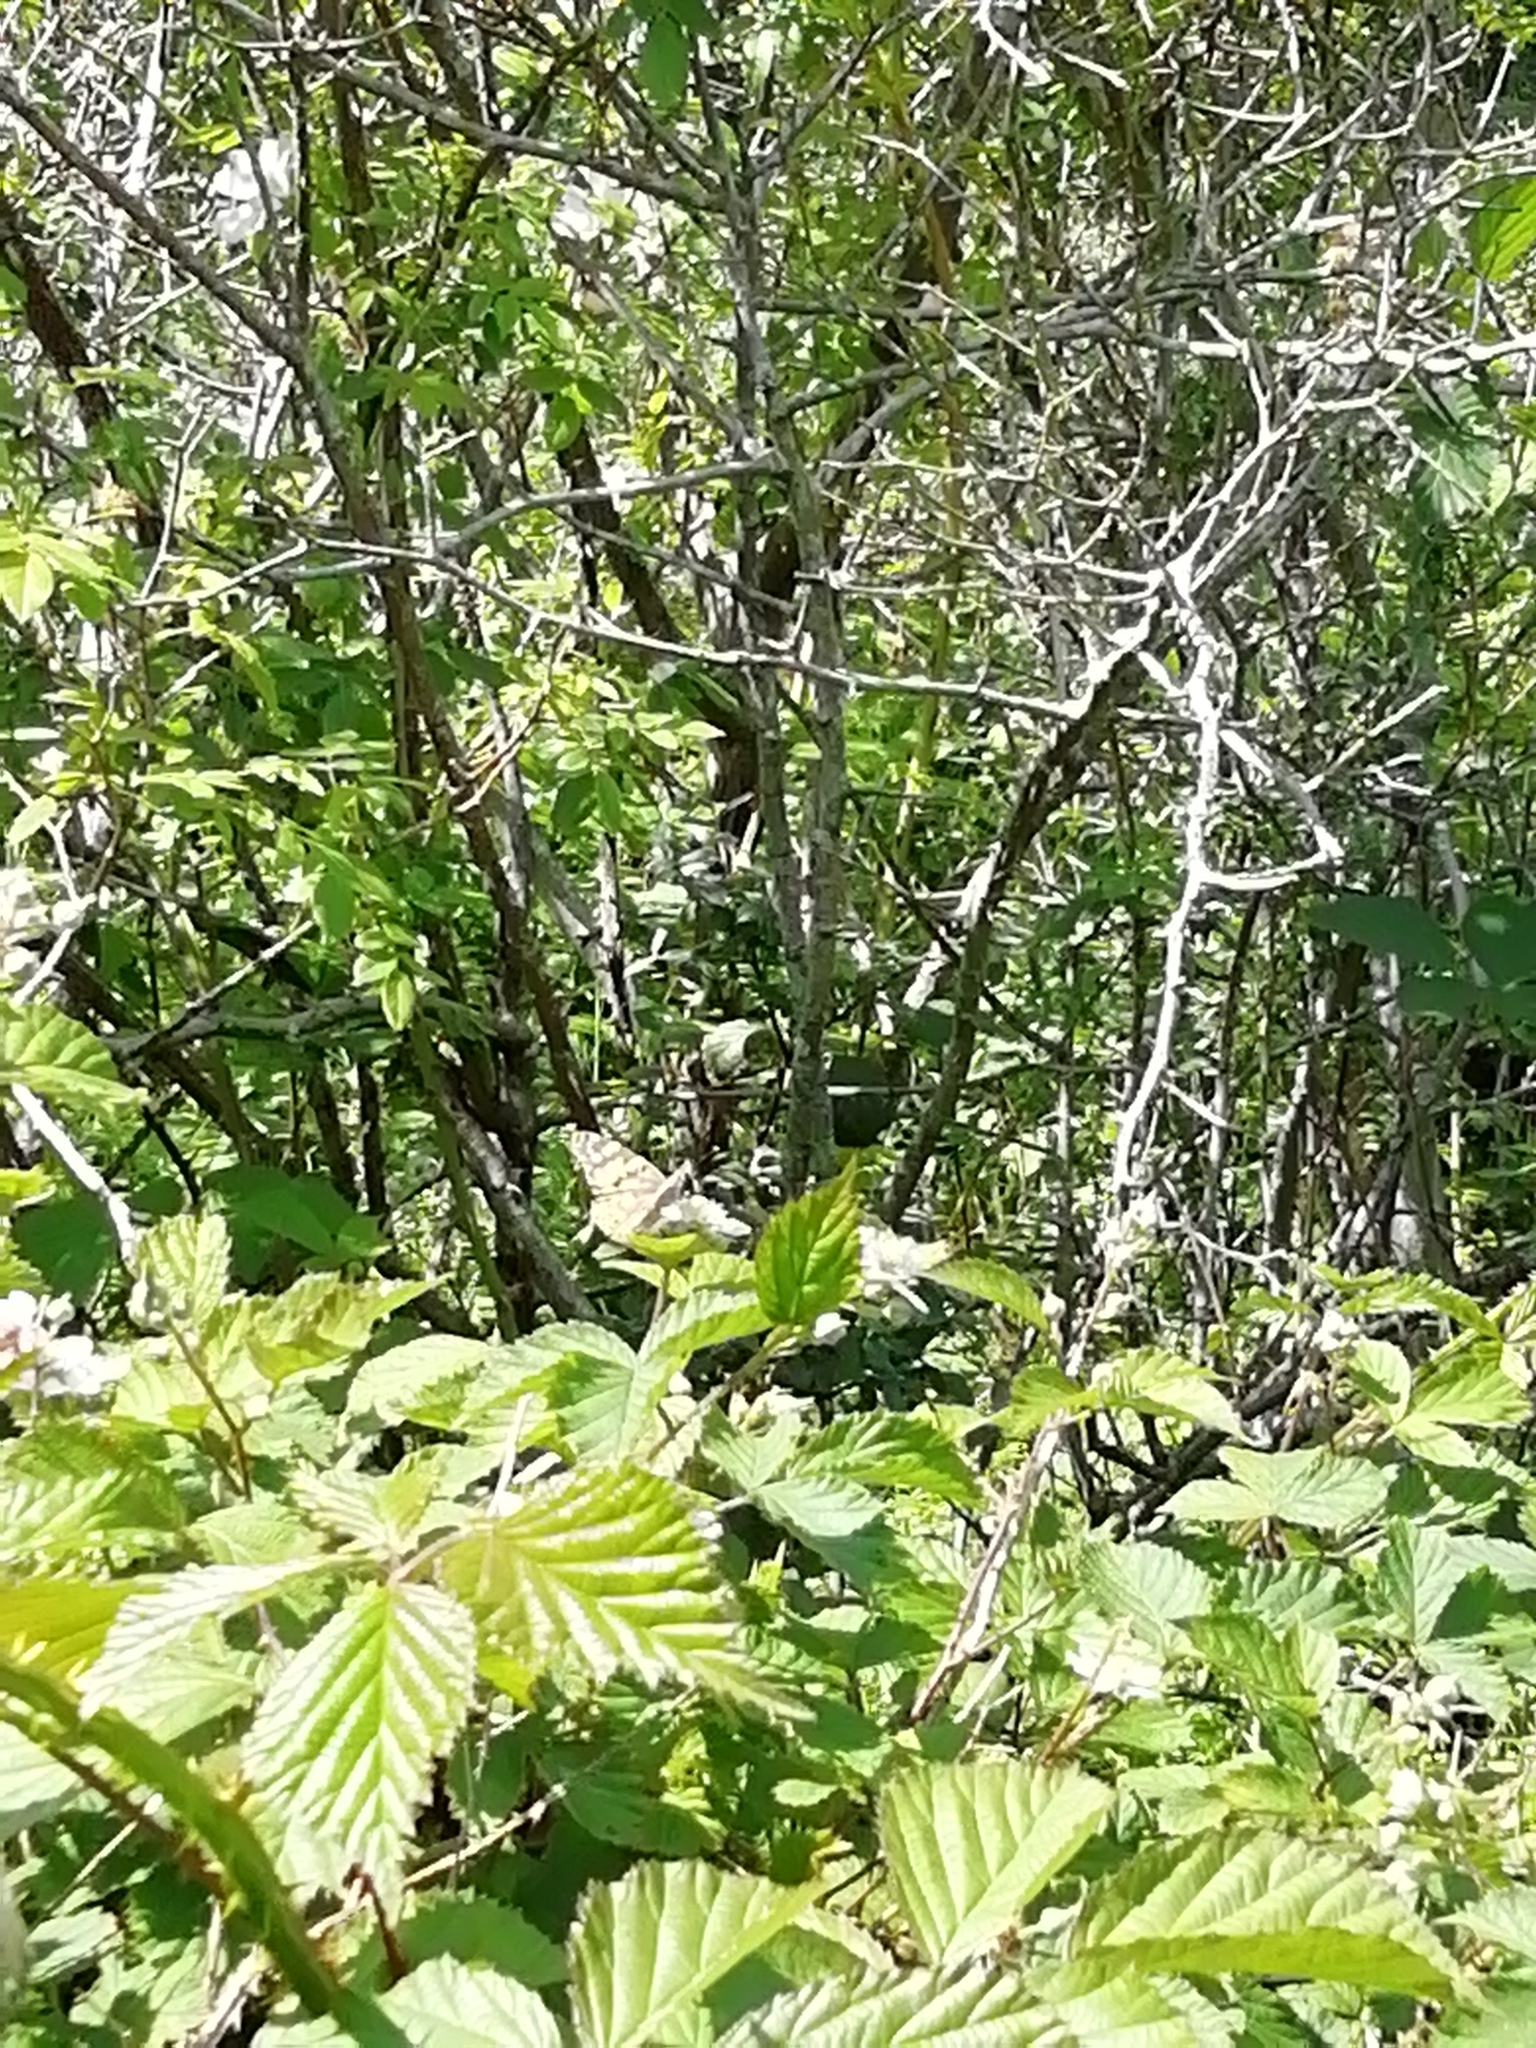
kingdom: Animalia
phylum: Arthropoda
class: Insecta
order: Lepidoptera
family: Nymphalidae
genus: Vanessa
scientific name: Vanessa cardui
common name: Painted lady
